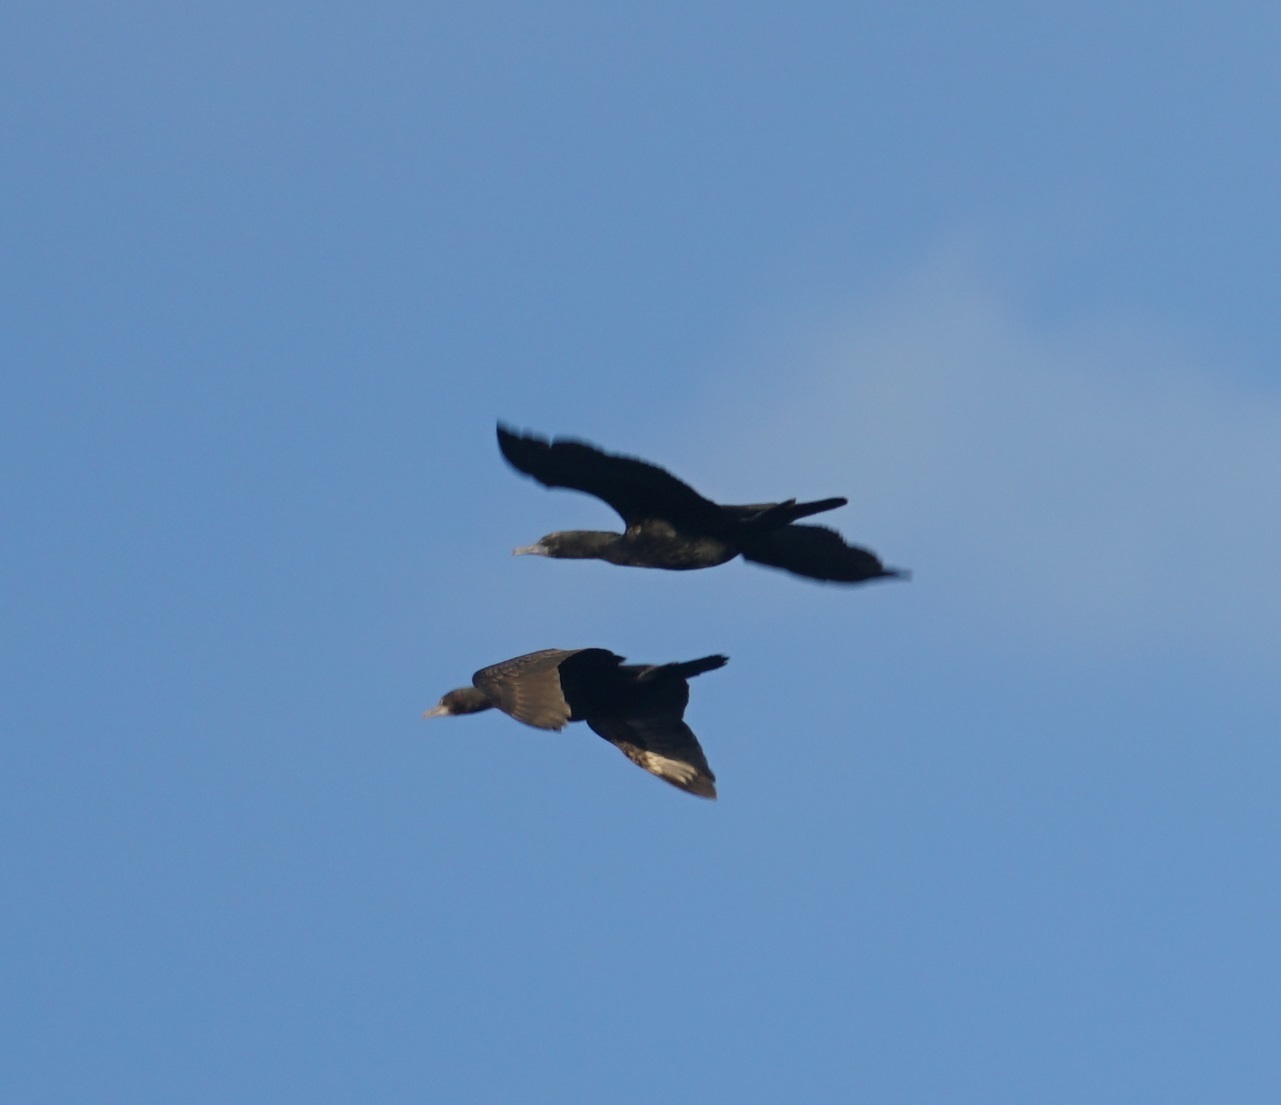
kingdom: Animalia
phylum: Chordata
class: Aves
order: Suliformes
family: Phalacrocoracidae
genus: Phalacrocorax
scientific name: Phalacrocorax sulcirostris
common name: Little black cormorant
